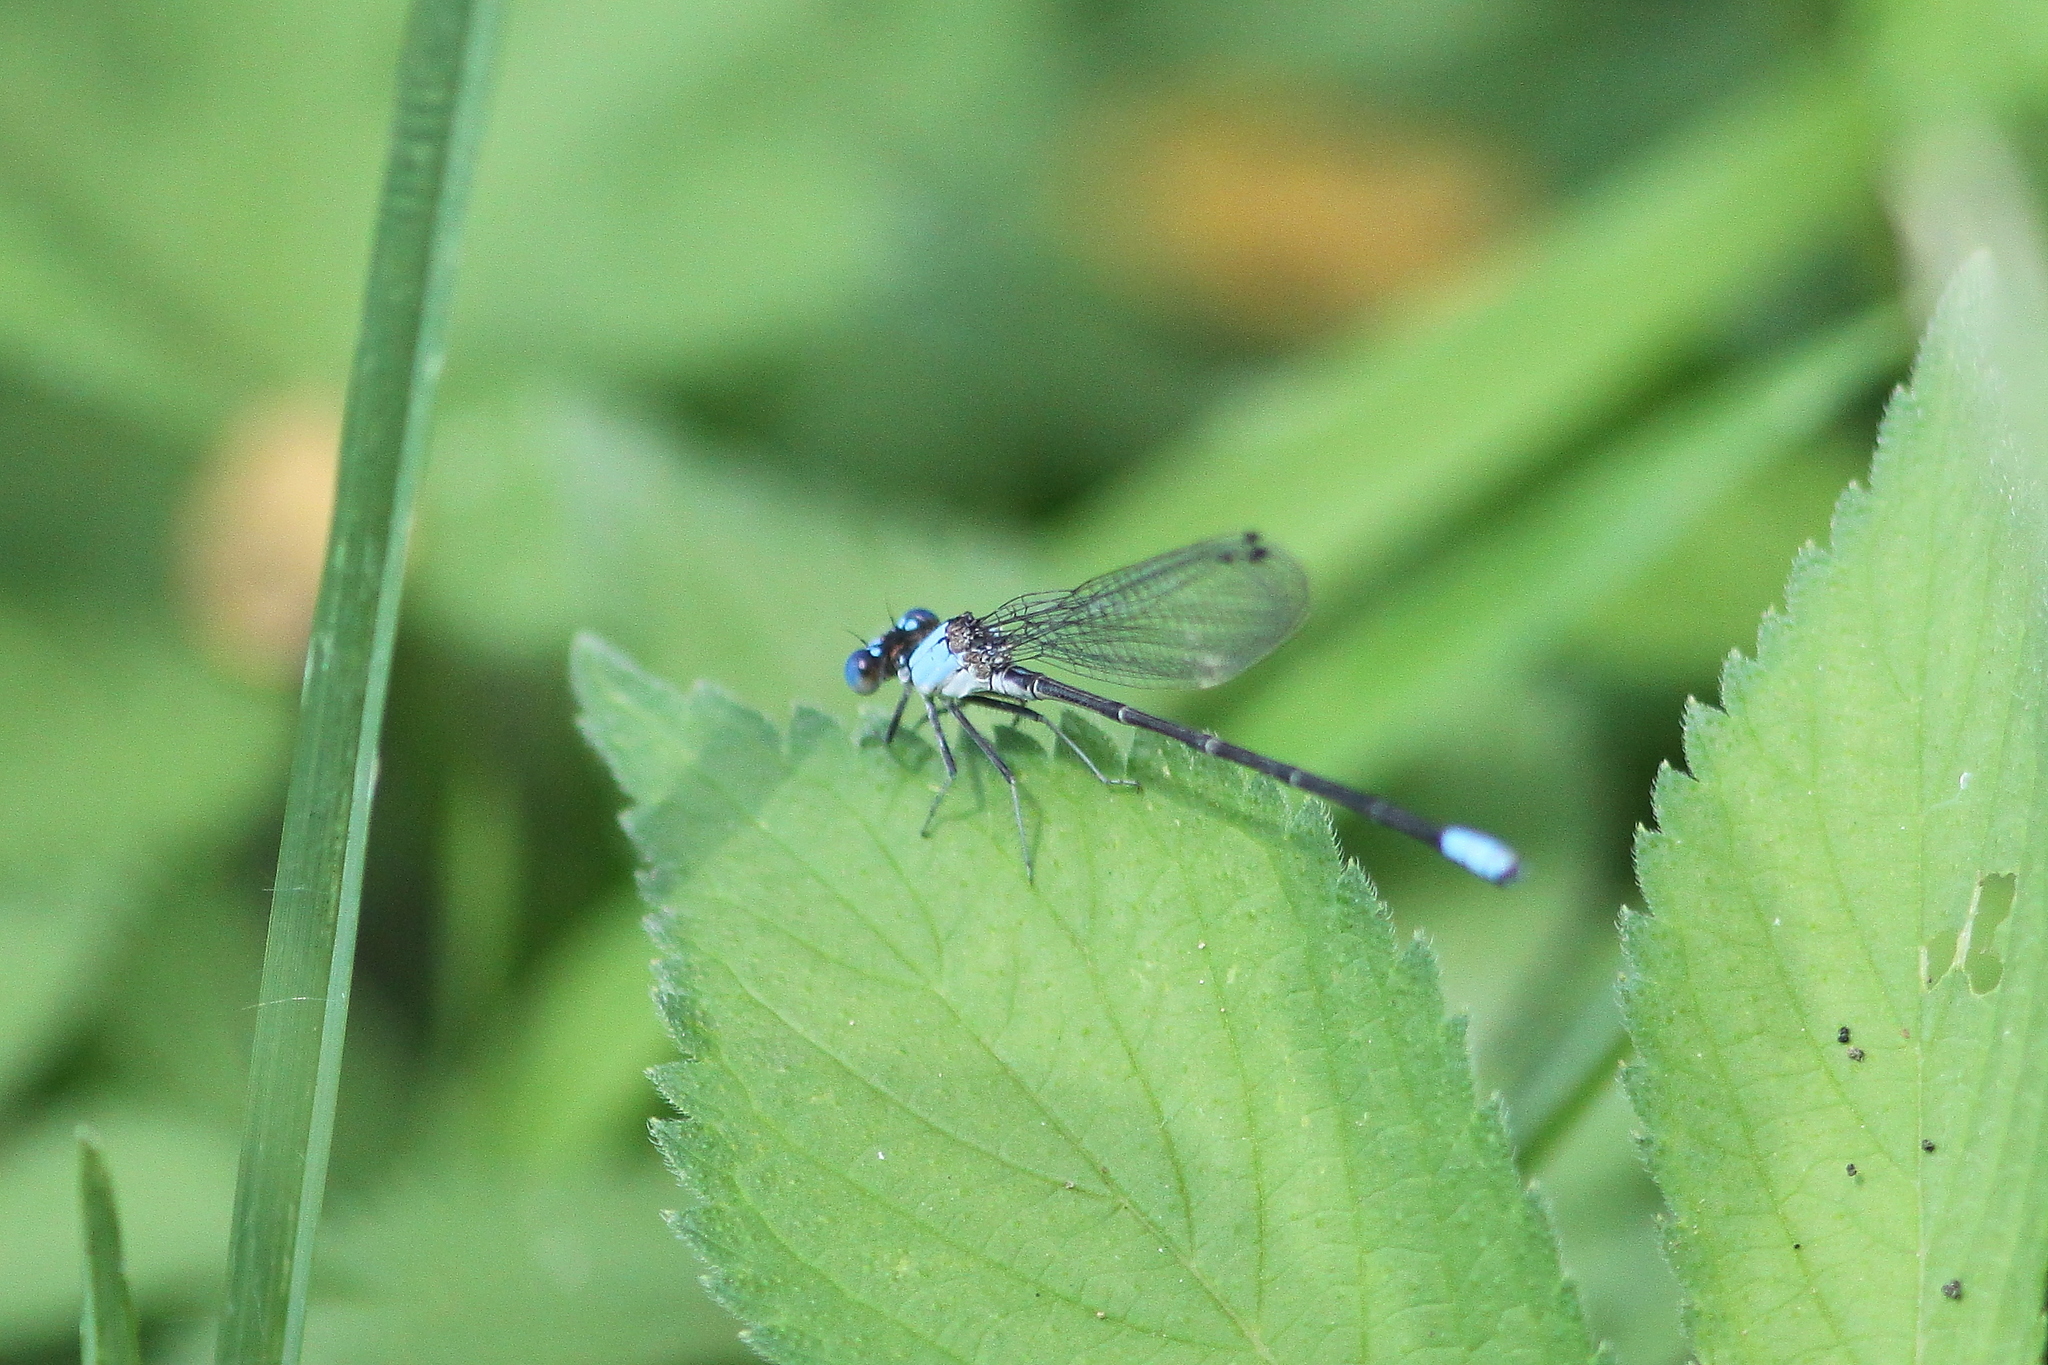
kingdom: Animalia
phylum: Arthropoda
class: Insecta
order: Odonata
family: Coenagrionidae
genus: Argia
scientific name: Argia apicalis
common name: Blue-fronted dancer
